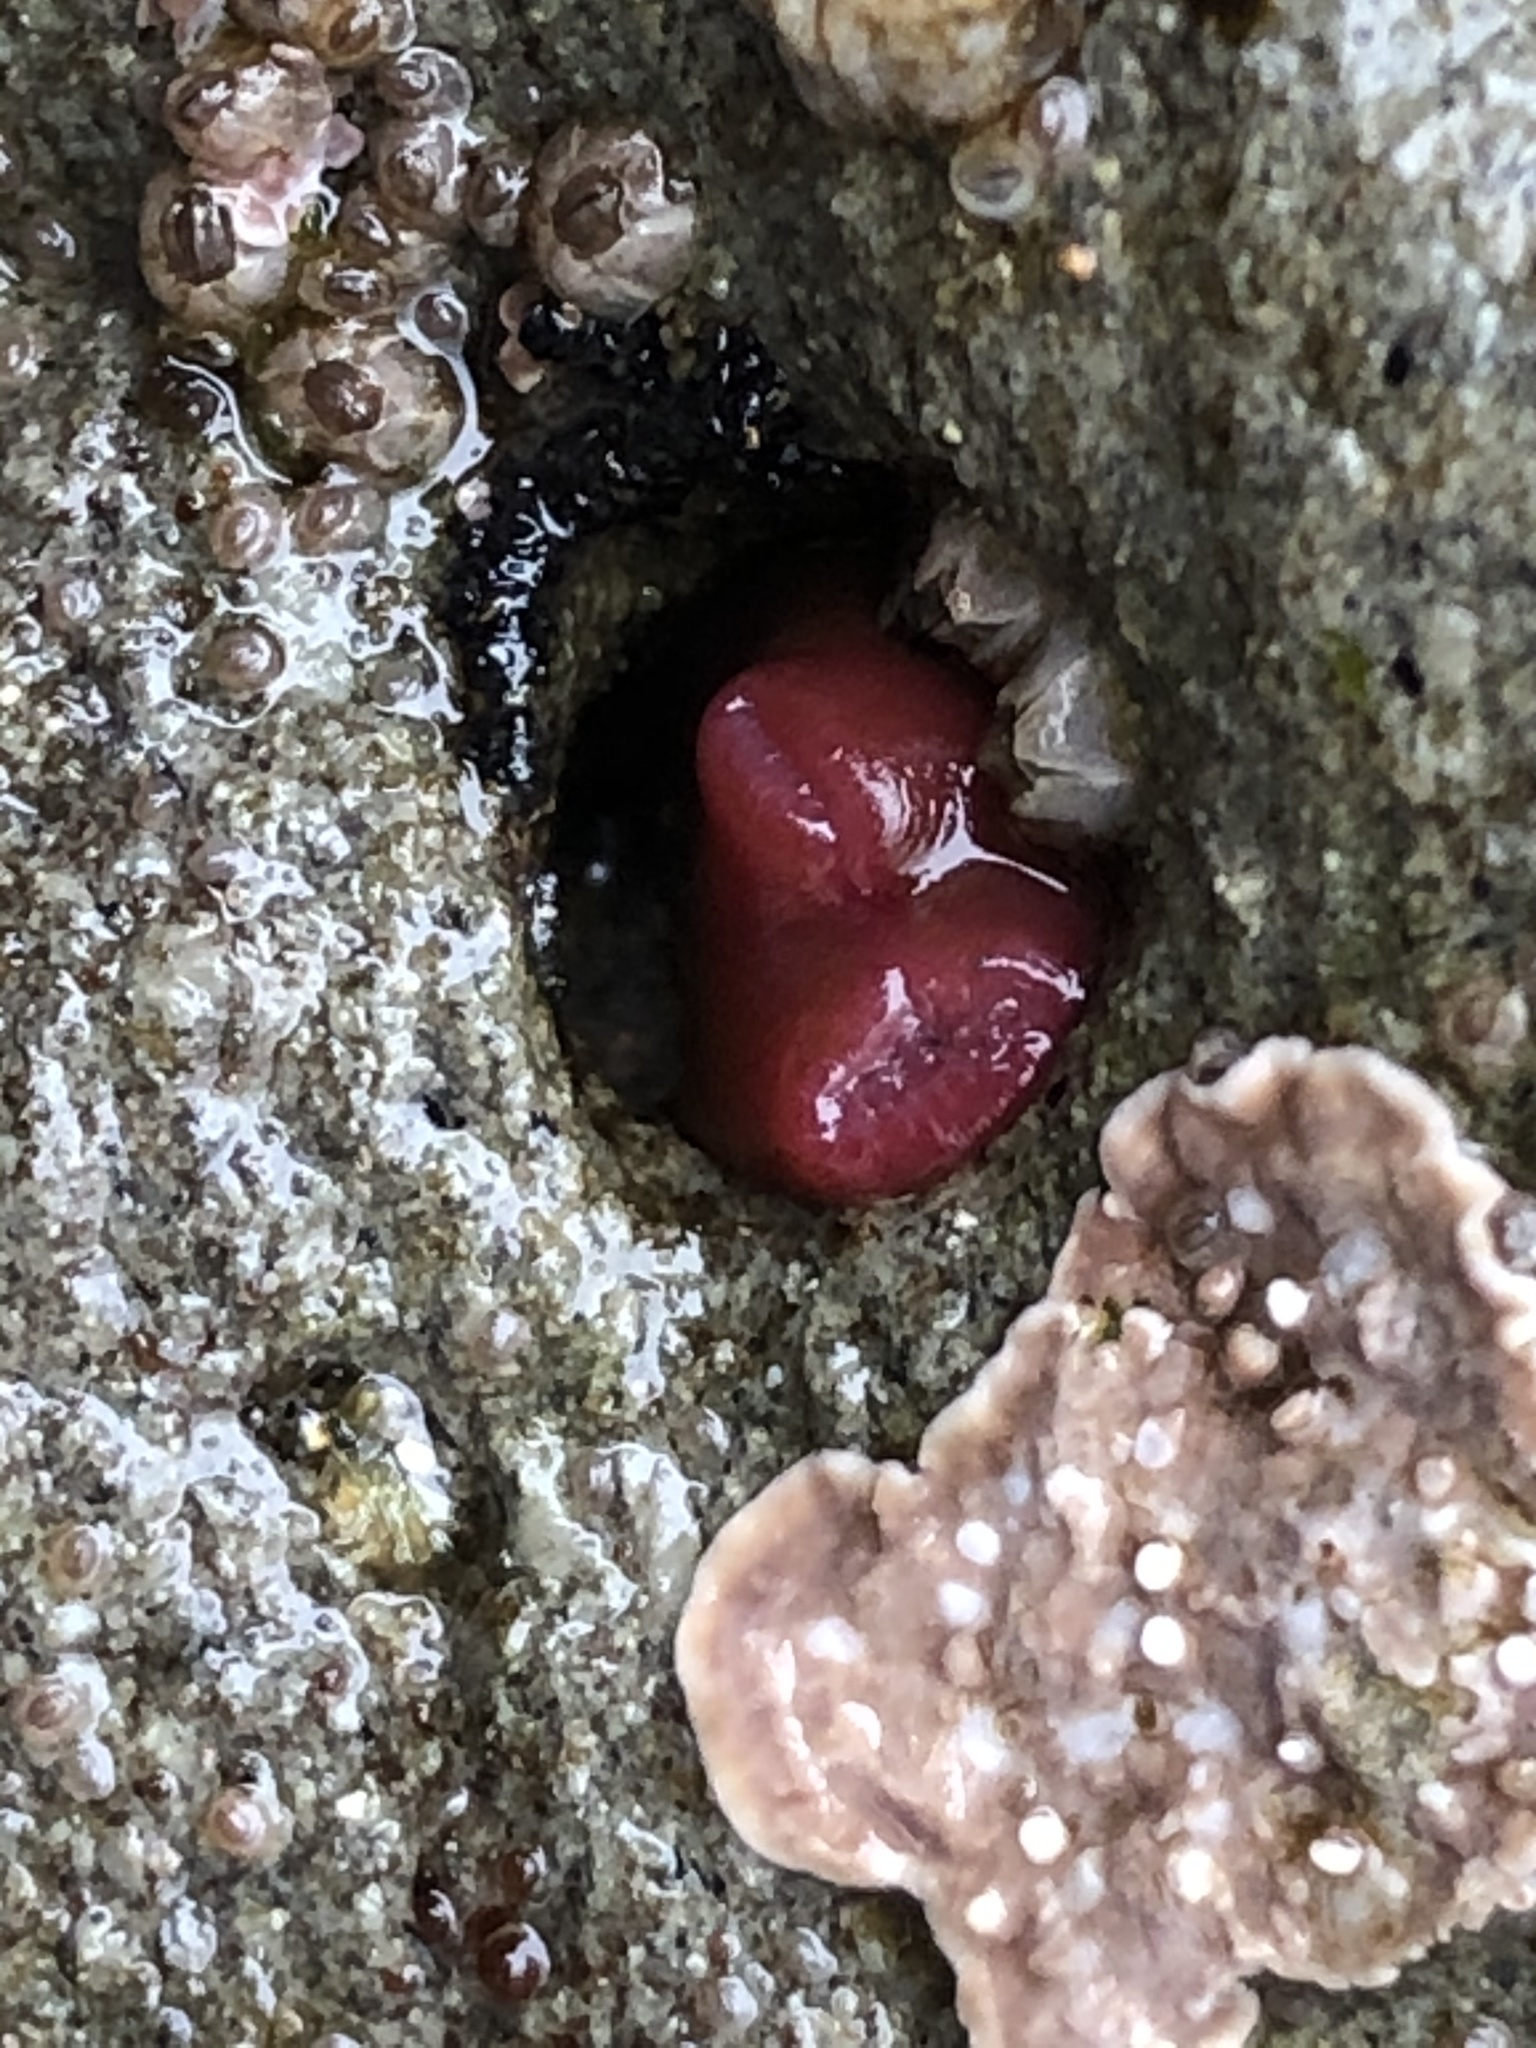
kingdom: Animalia
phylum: Mollusca
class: Bivalvia
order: Adapedonta
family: Hiatellidae
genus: Hiatella
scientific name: Hiatella arctica
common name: Arctic hiatella
